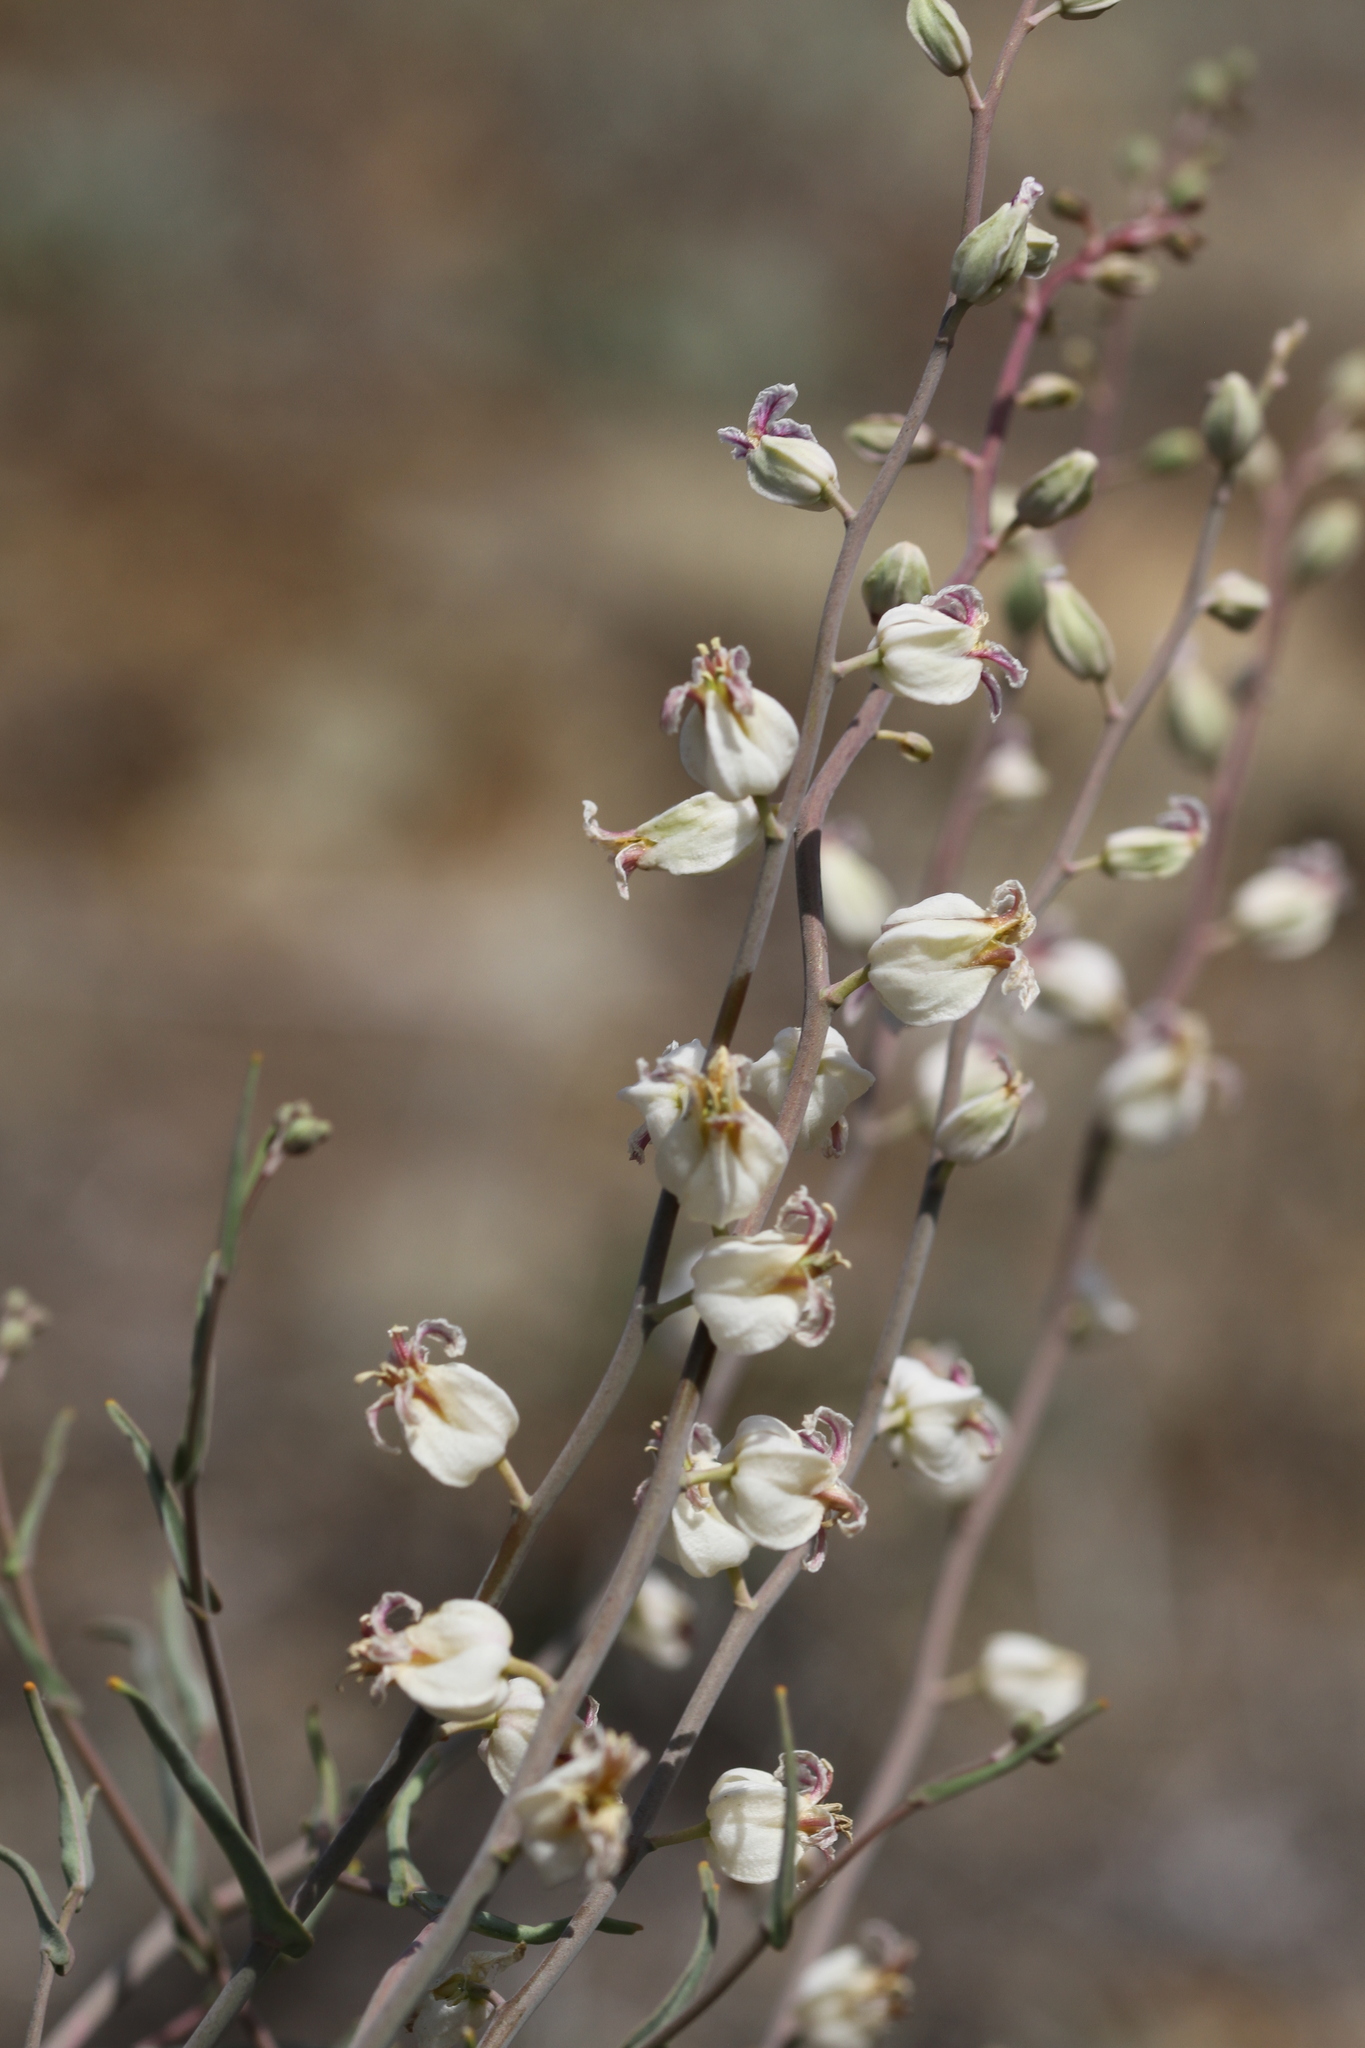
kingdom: Plantae
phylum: Tracheophyta
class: Magnoliopsida
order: Brassicales
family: Brassicaceae
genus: Streptanthus
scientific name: Streptanthus glandulosus
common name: Jewel-flower
